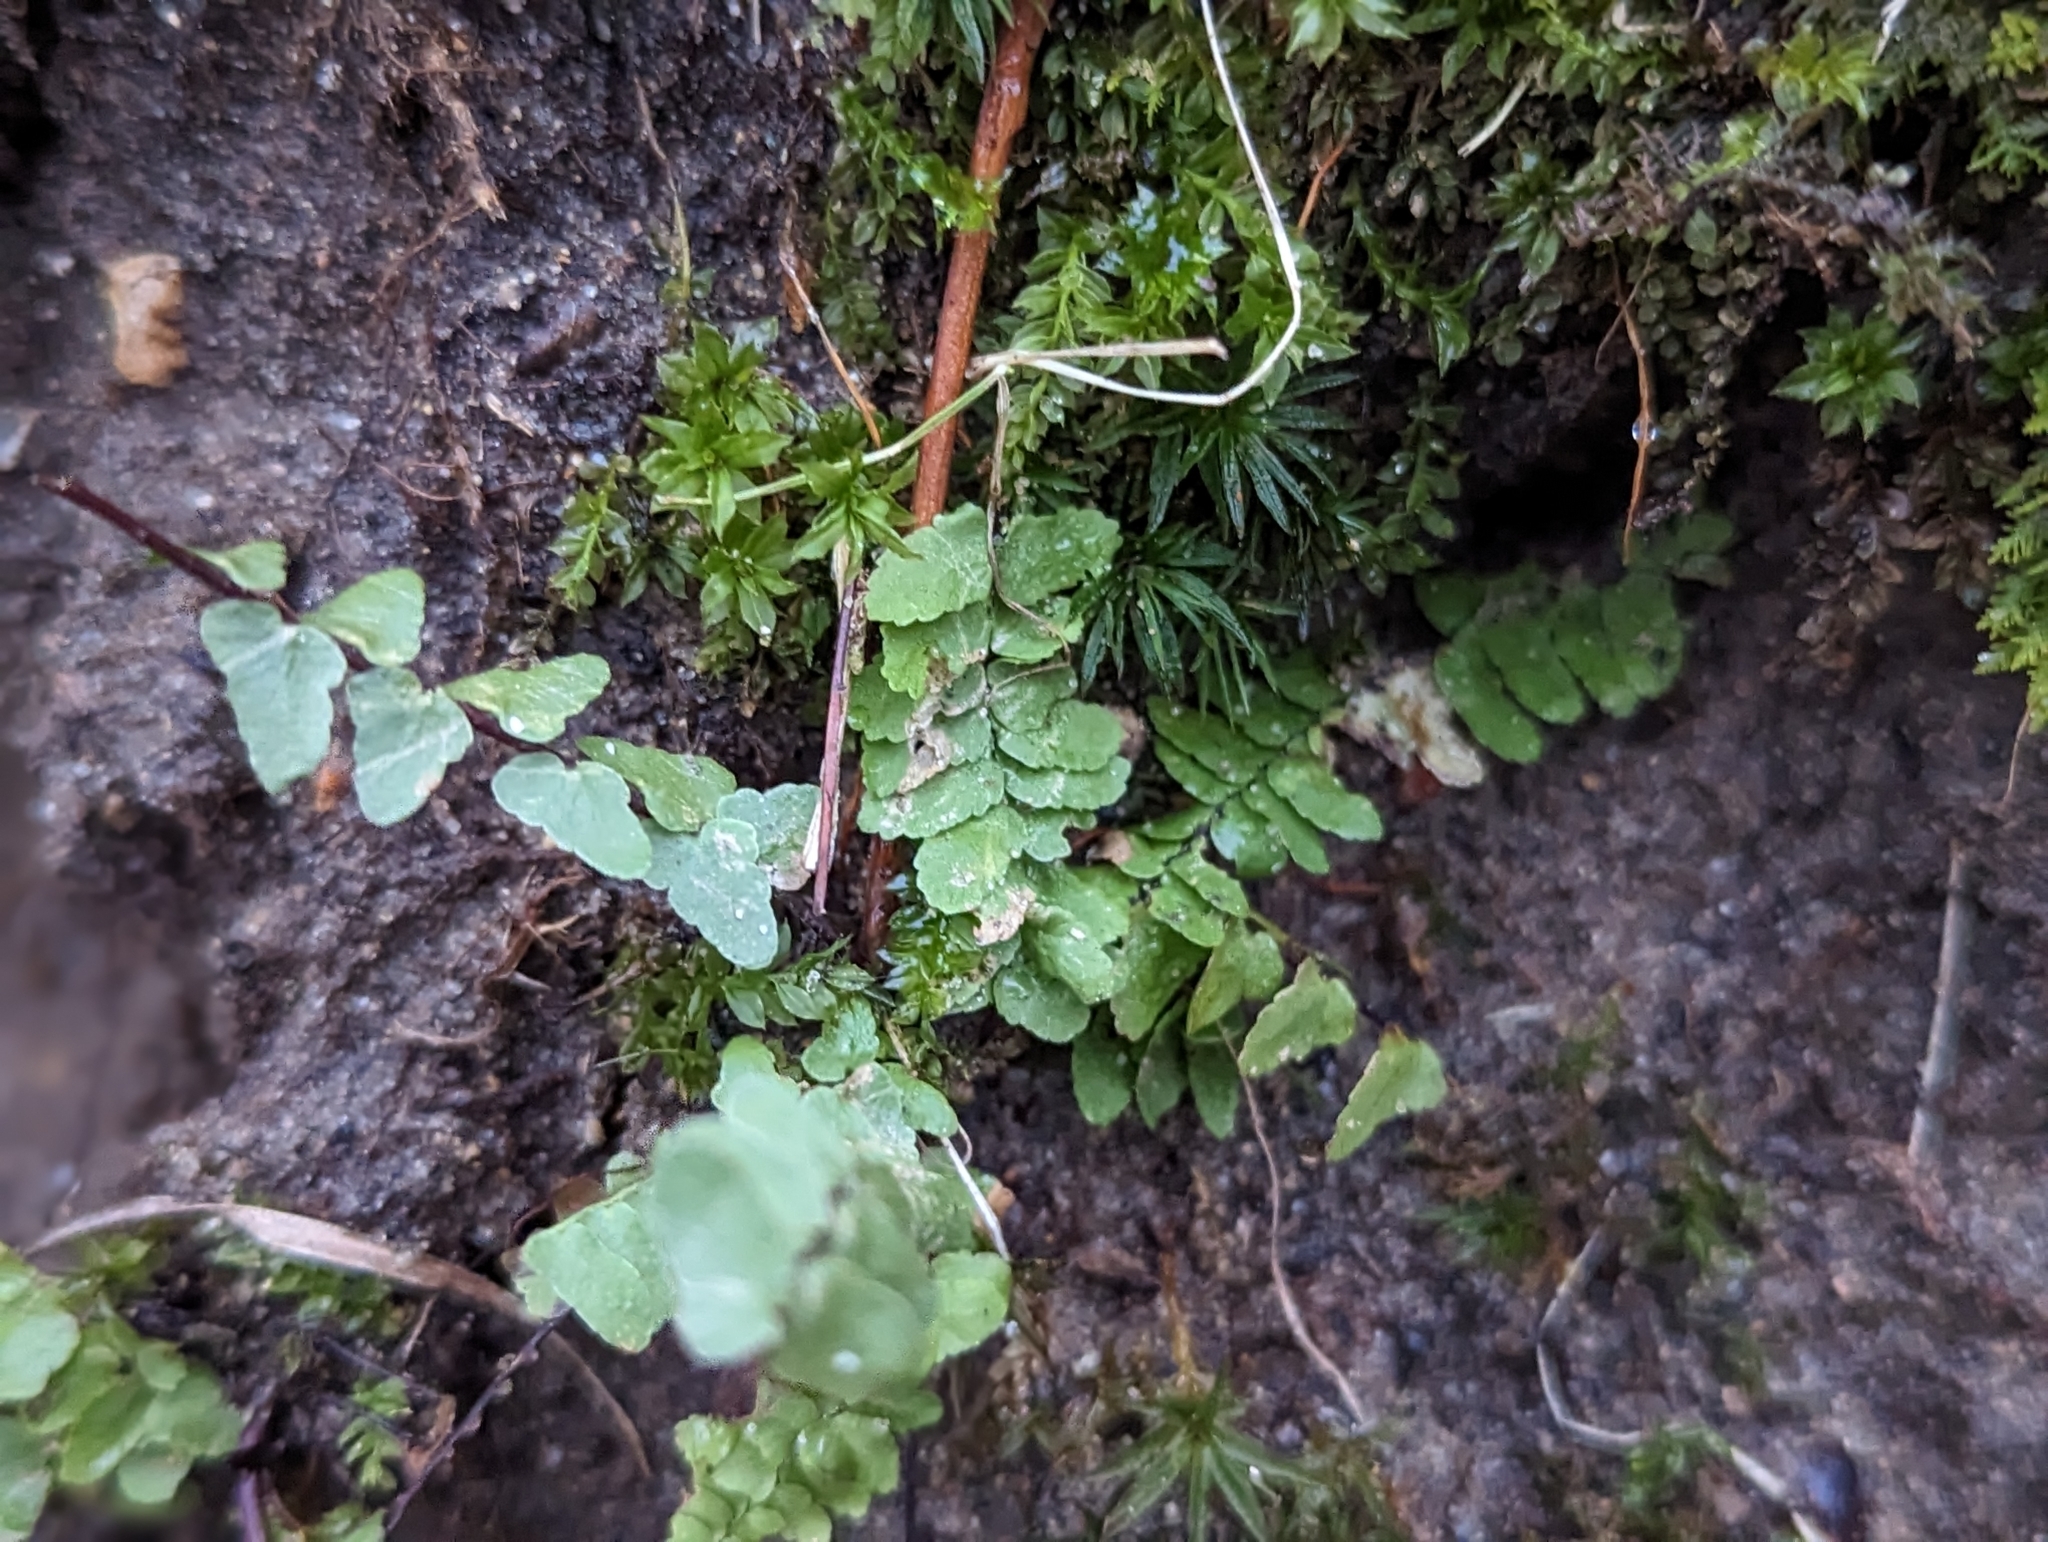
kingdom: Plantae
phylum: Tracheophyta
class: Polypodiopsida
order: Polypodiales
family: Aspleniaceae
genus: Asplenium
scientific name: Asplenium platyneuron
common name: Ebony spleenwort
